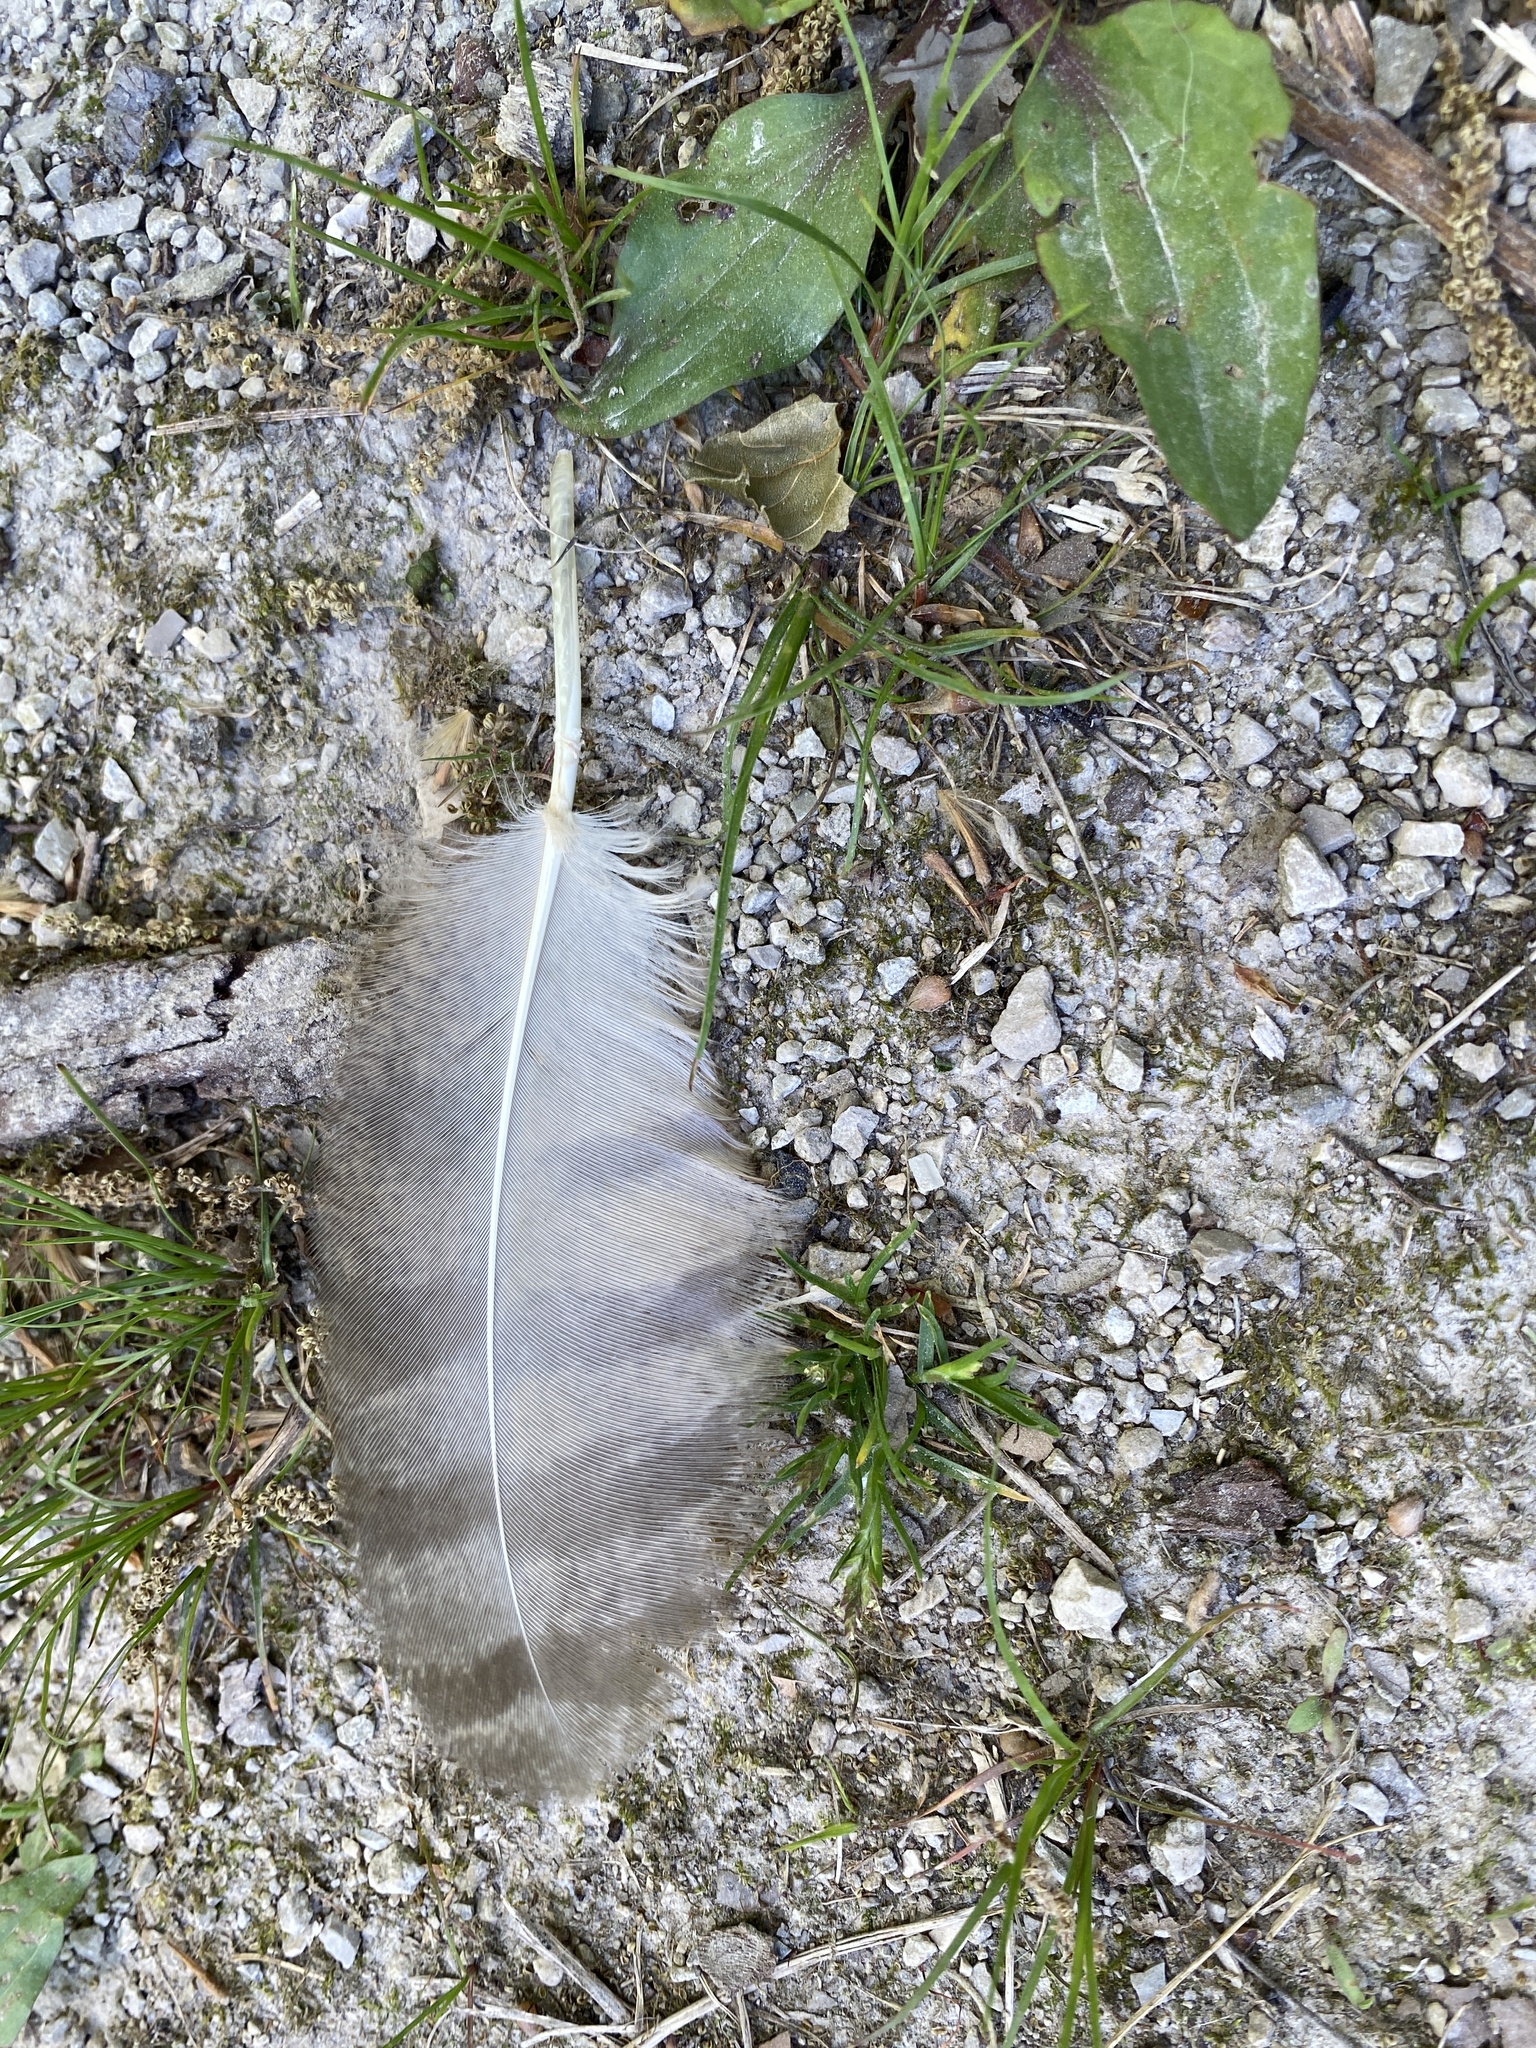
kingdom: Animalia
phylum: Chordata
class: Aves
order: Strigiformes
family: Strigidae
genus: Bubo
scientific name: Bubo virginianus
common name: Great horned owl
